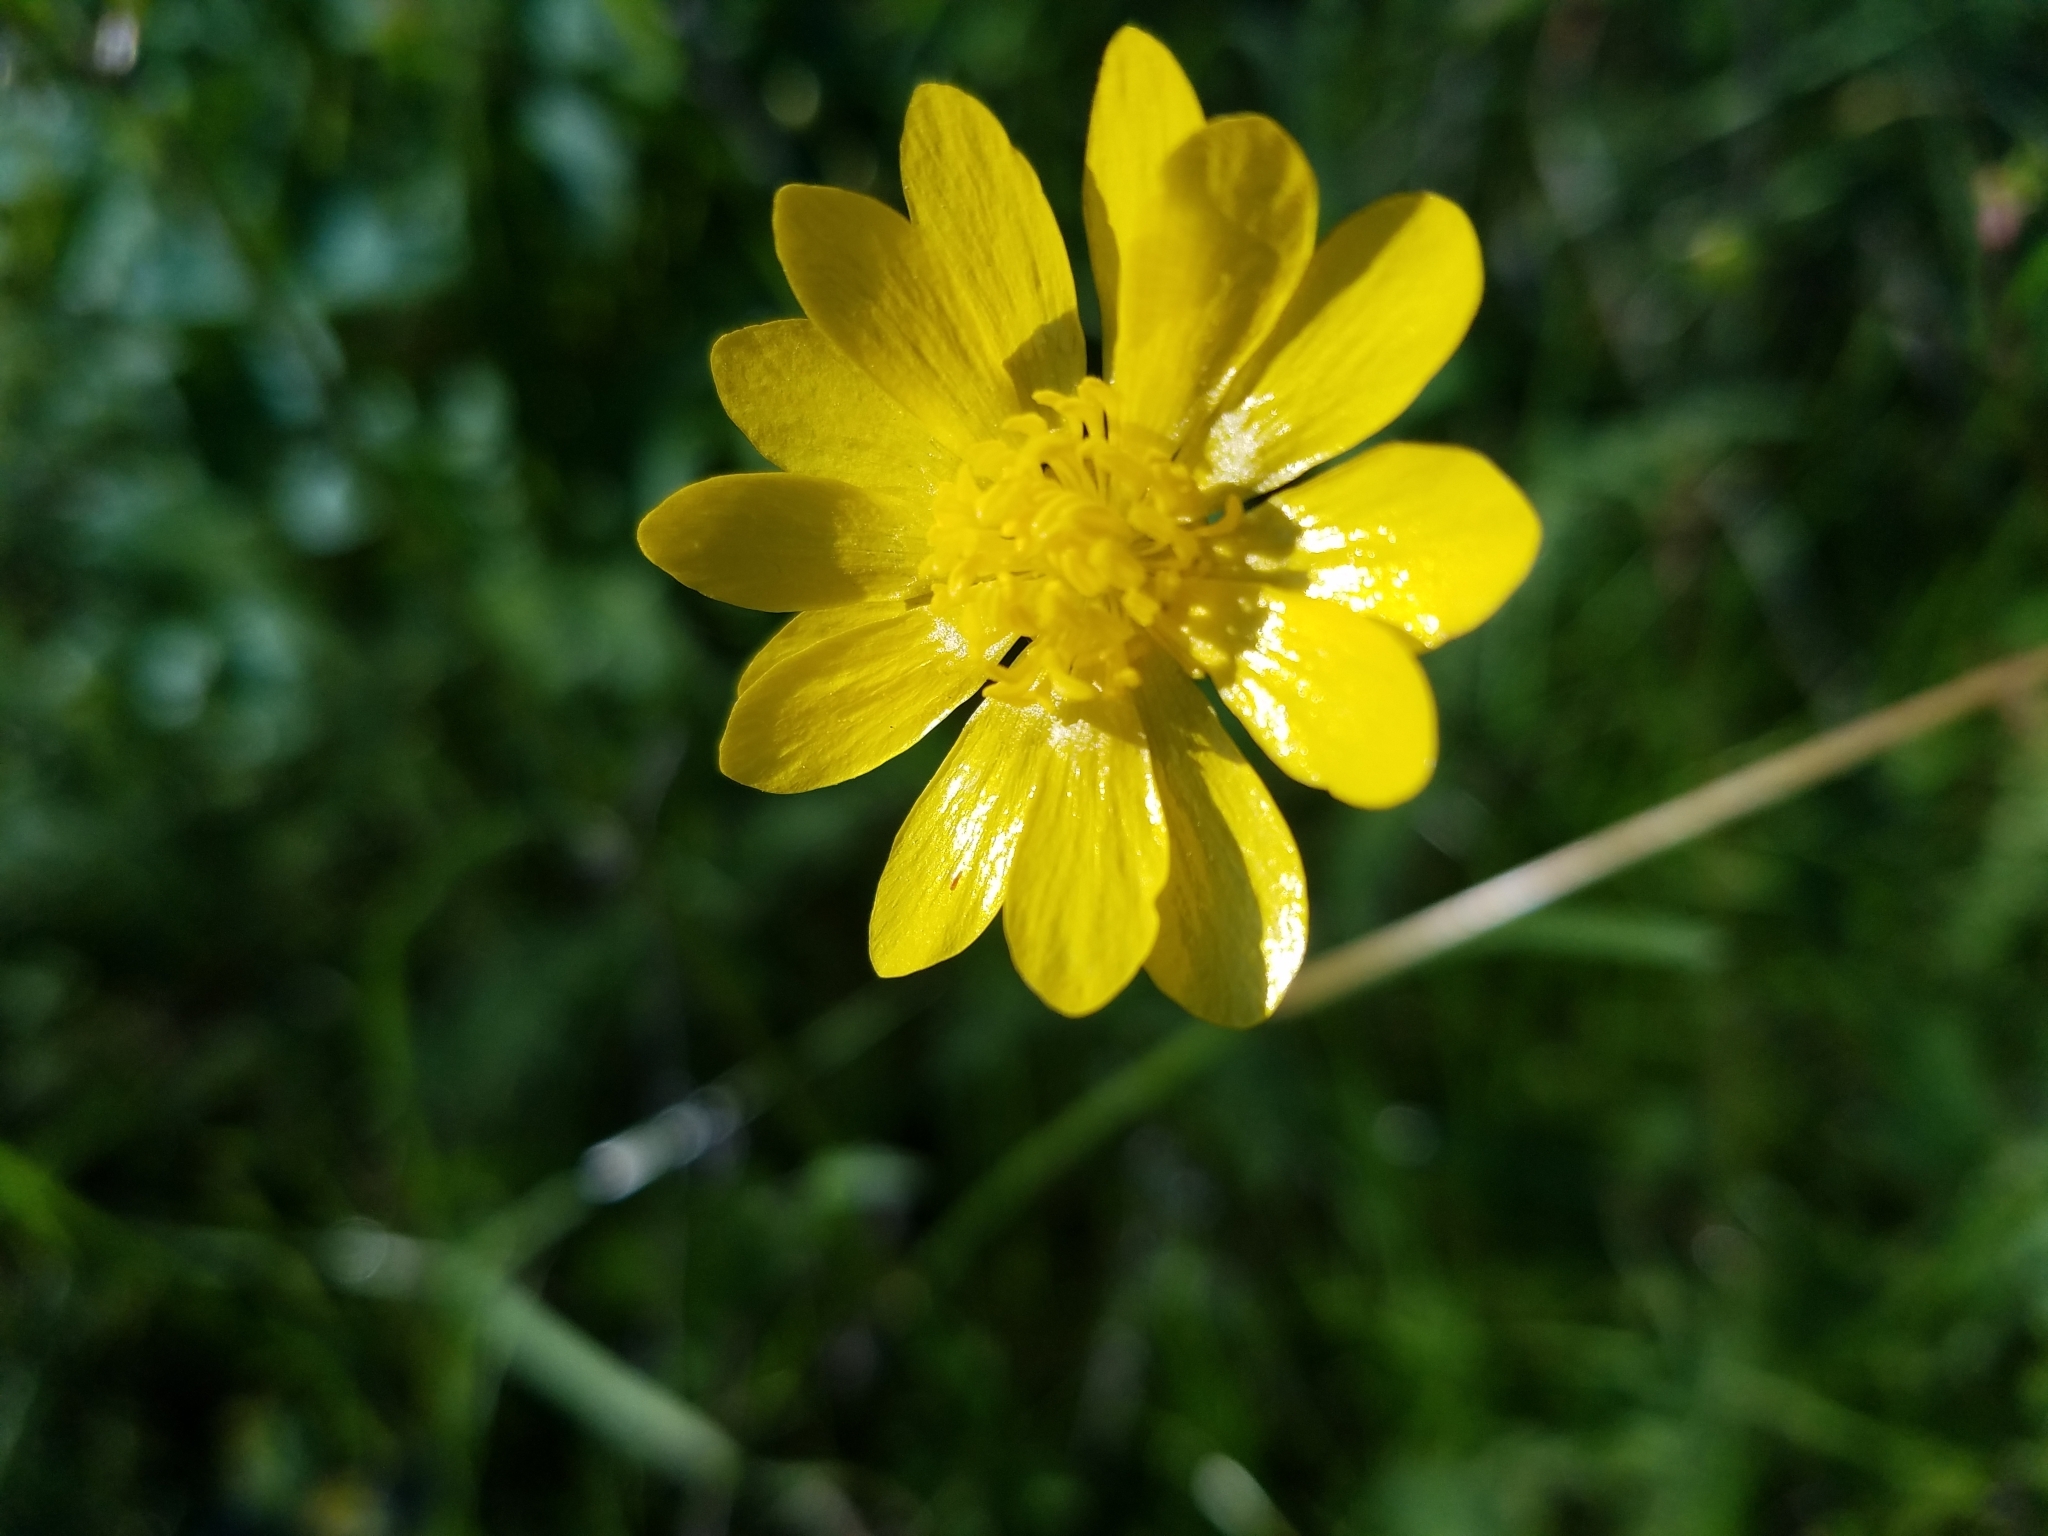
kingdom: Plantae
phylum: Tracheophyta
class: Magnoliopsida
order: Ranunculales
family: Ranunculaceae
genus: Ranunculus
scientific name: Ranunculus californicus
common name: California buttercup
